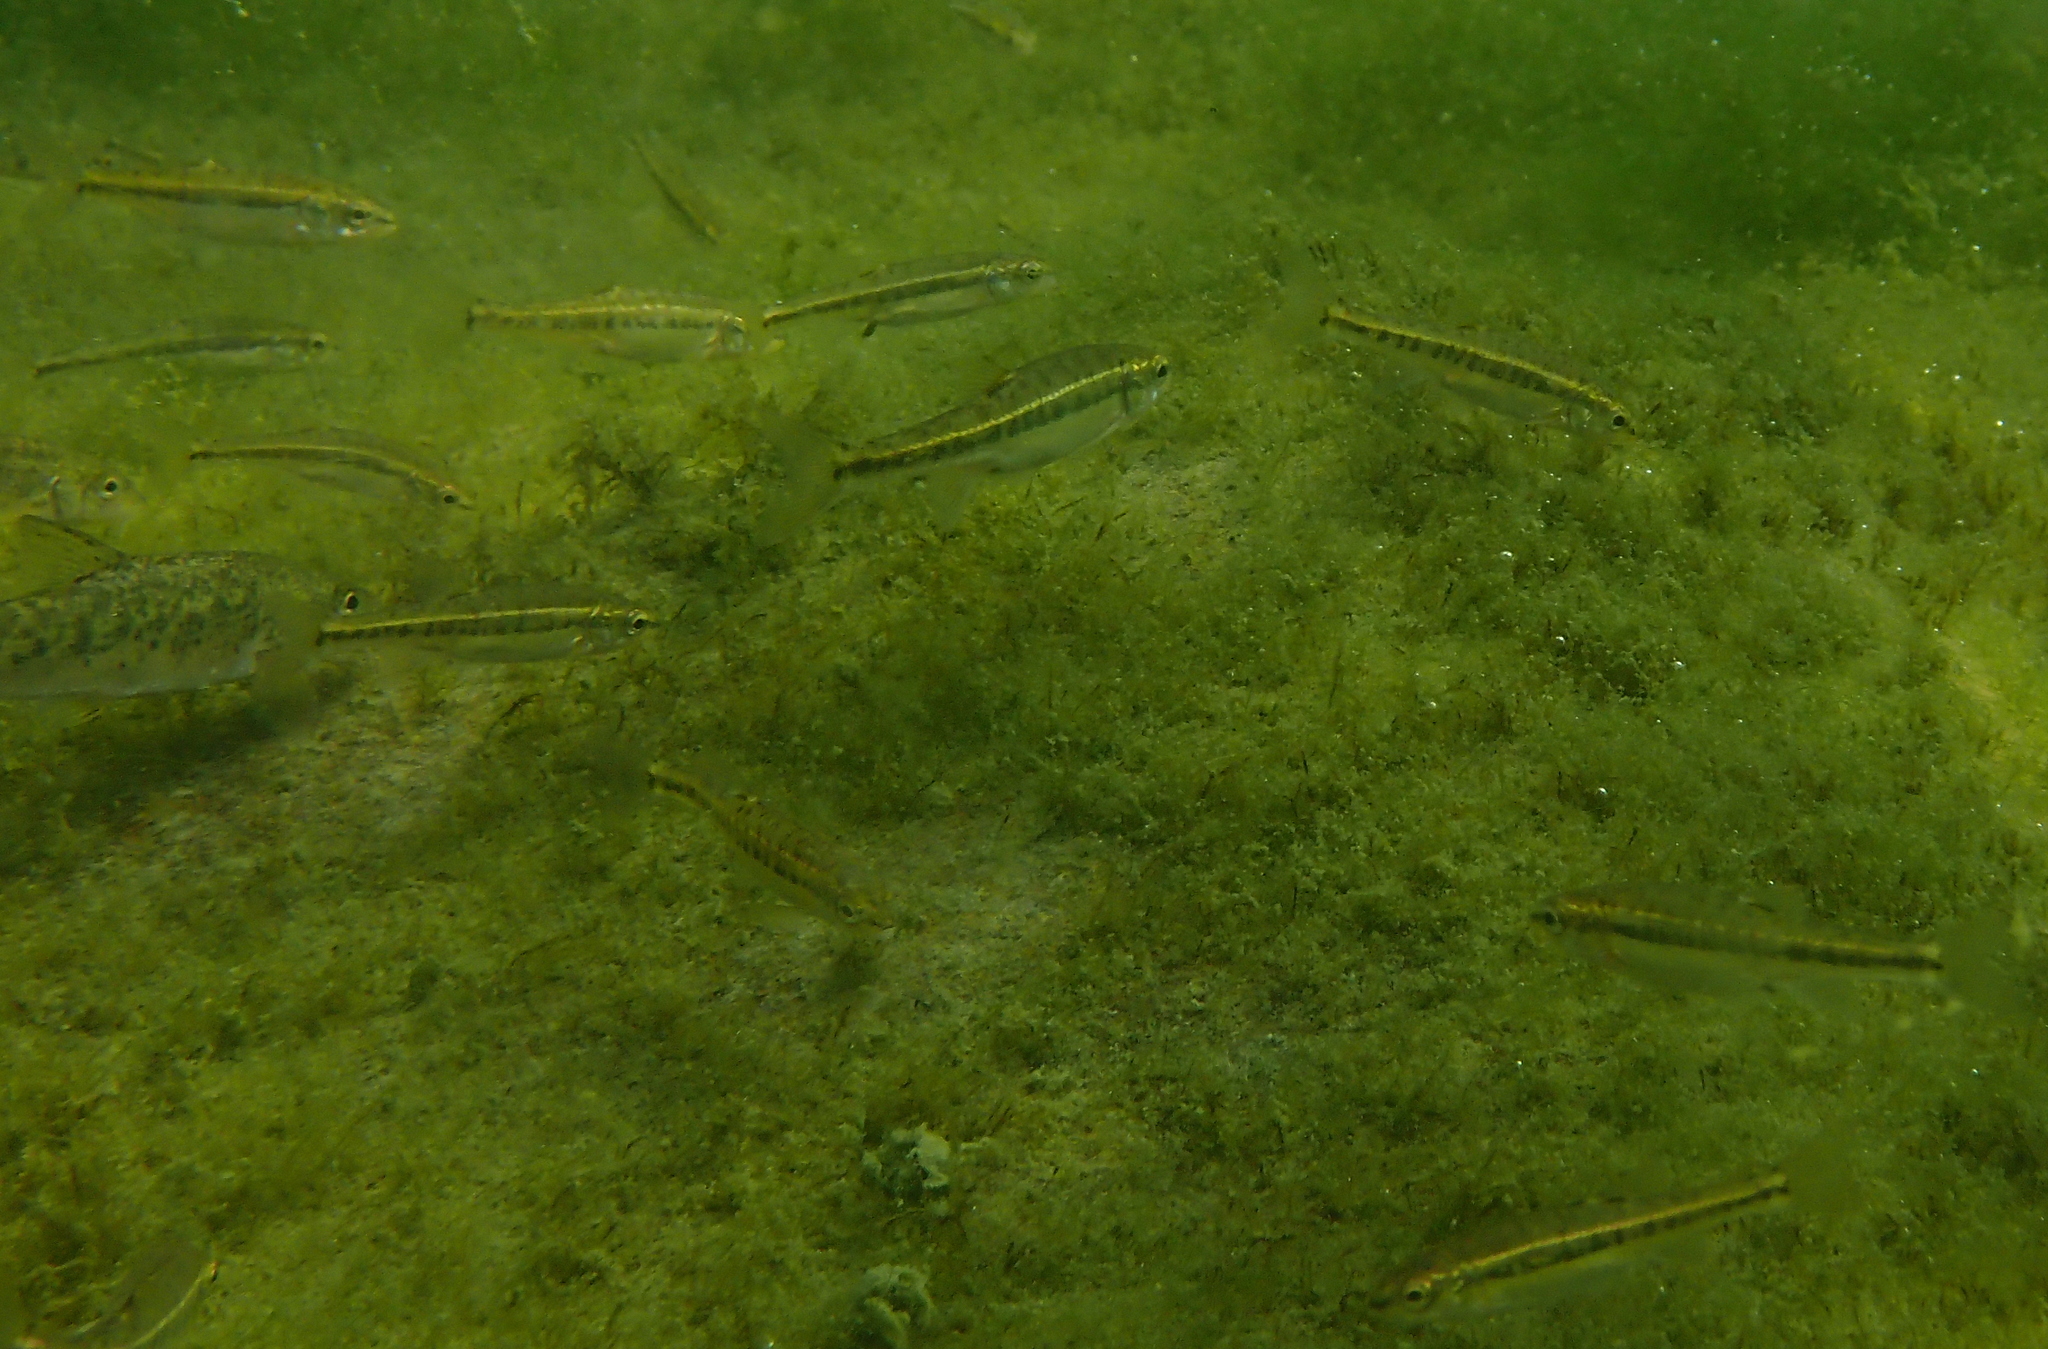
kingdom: Animalia
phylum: Chordata
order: Cypriniformes
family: Cyprinidae
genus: Phoxinus
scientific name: Phoxinus septimaniae
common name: Languedoc minnow
